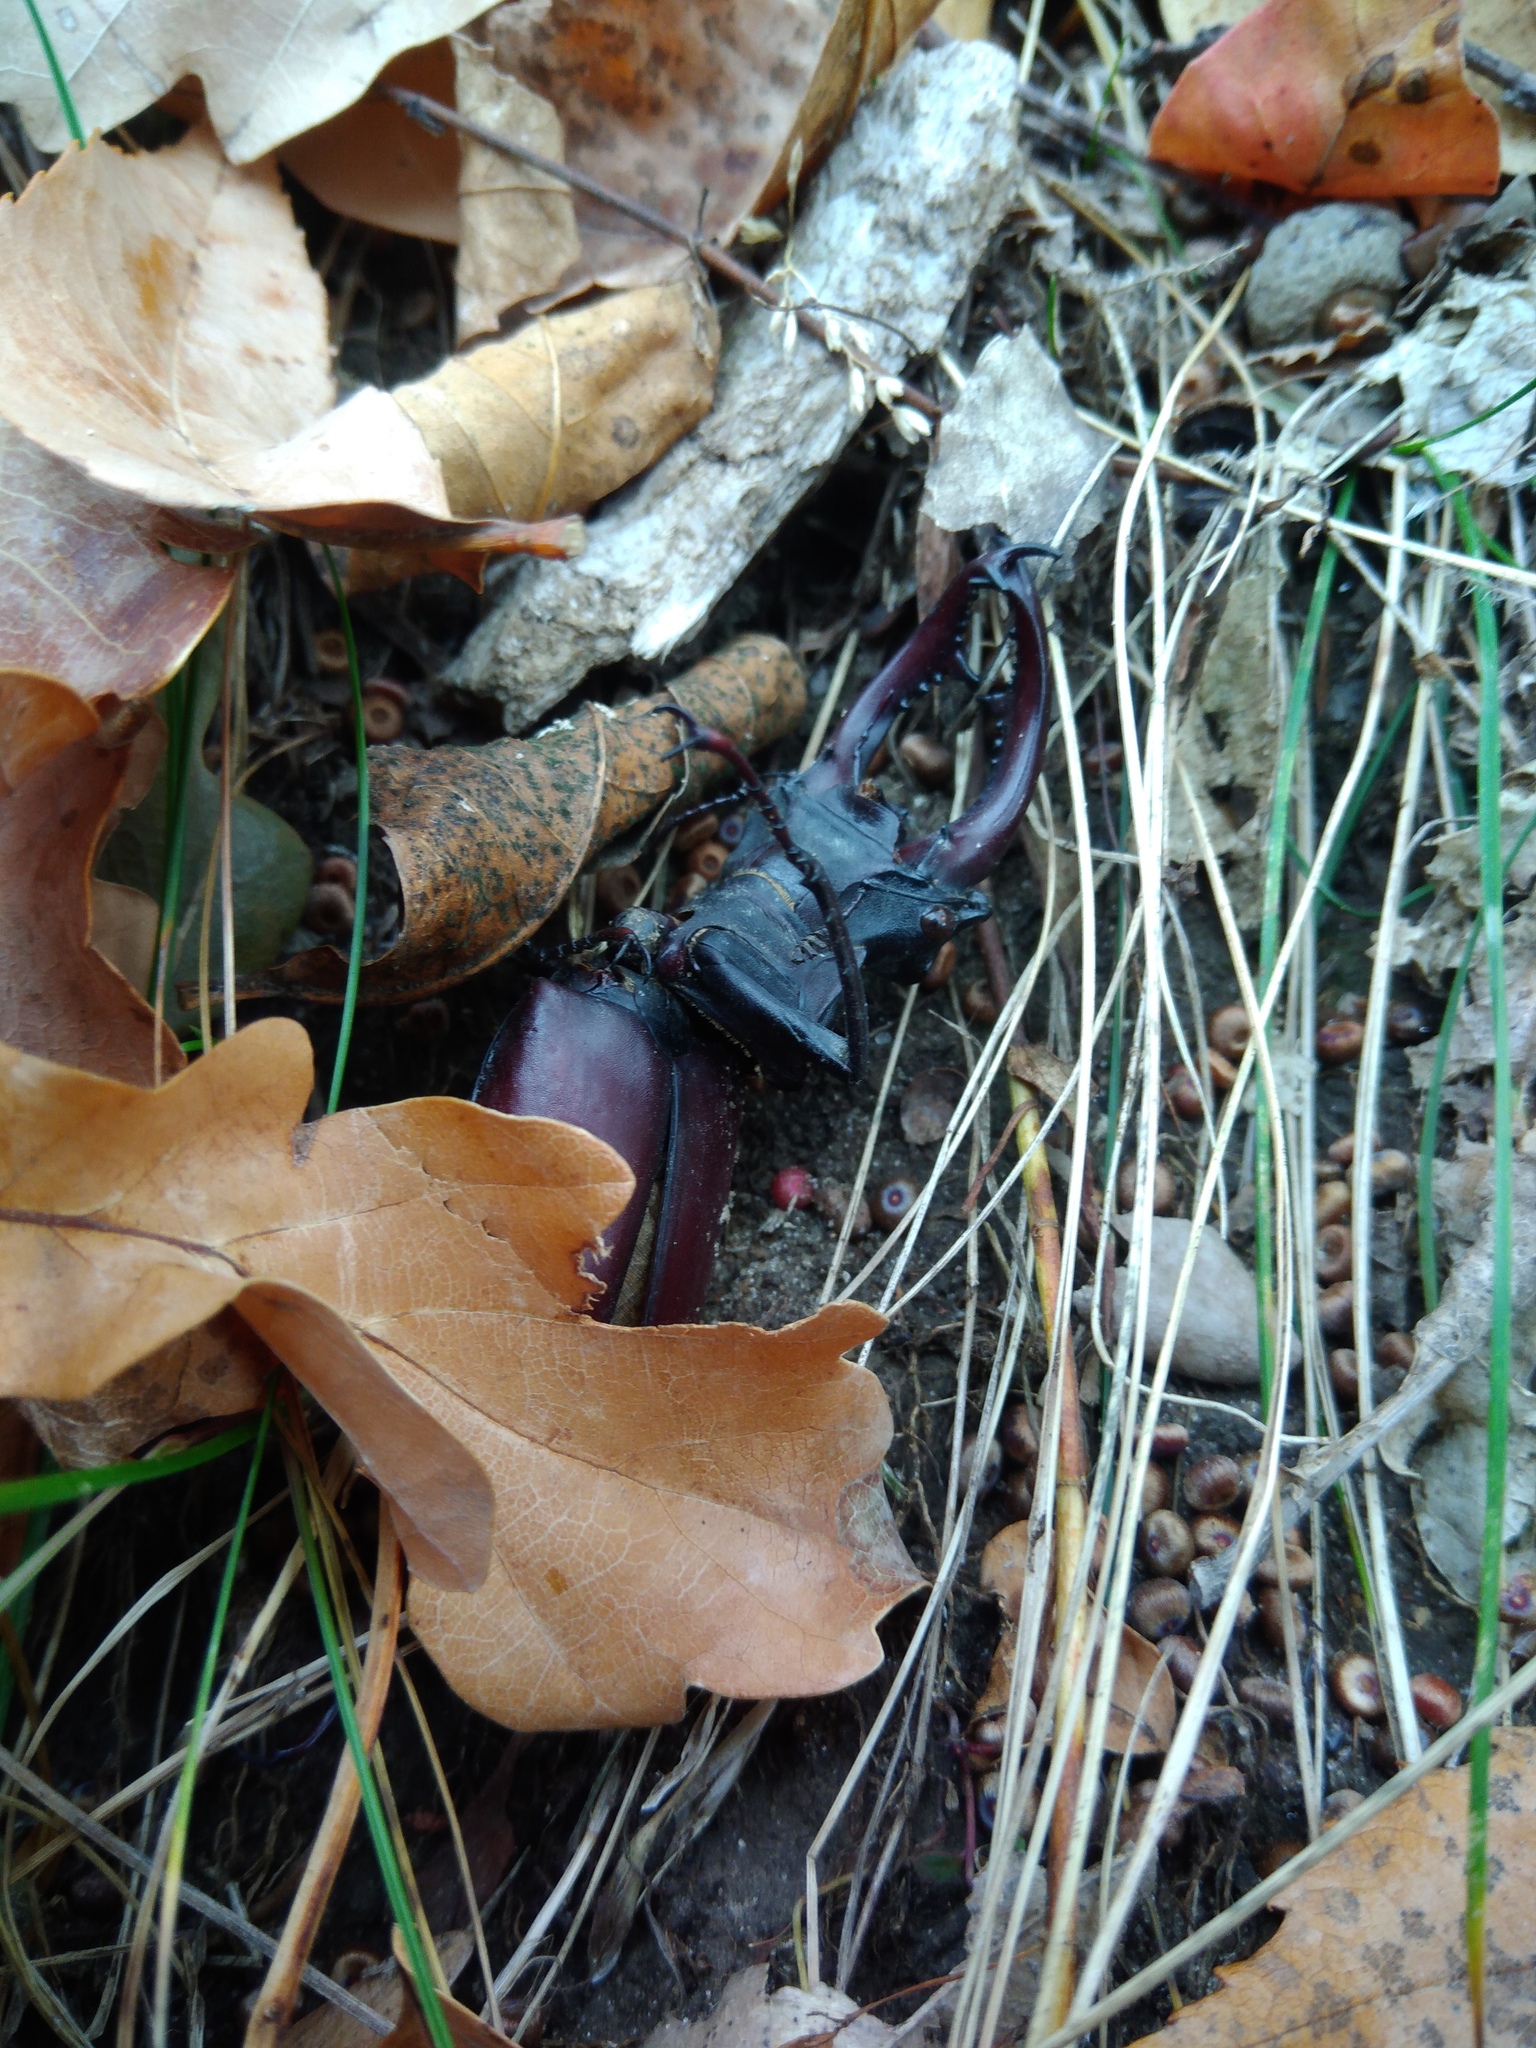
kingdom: Animalia
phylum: Arthropoda
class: Insecta
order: Coleoptera
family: Lucanidae
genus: Lucanus
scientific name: Lucanus cervus
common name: Stag beetle
